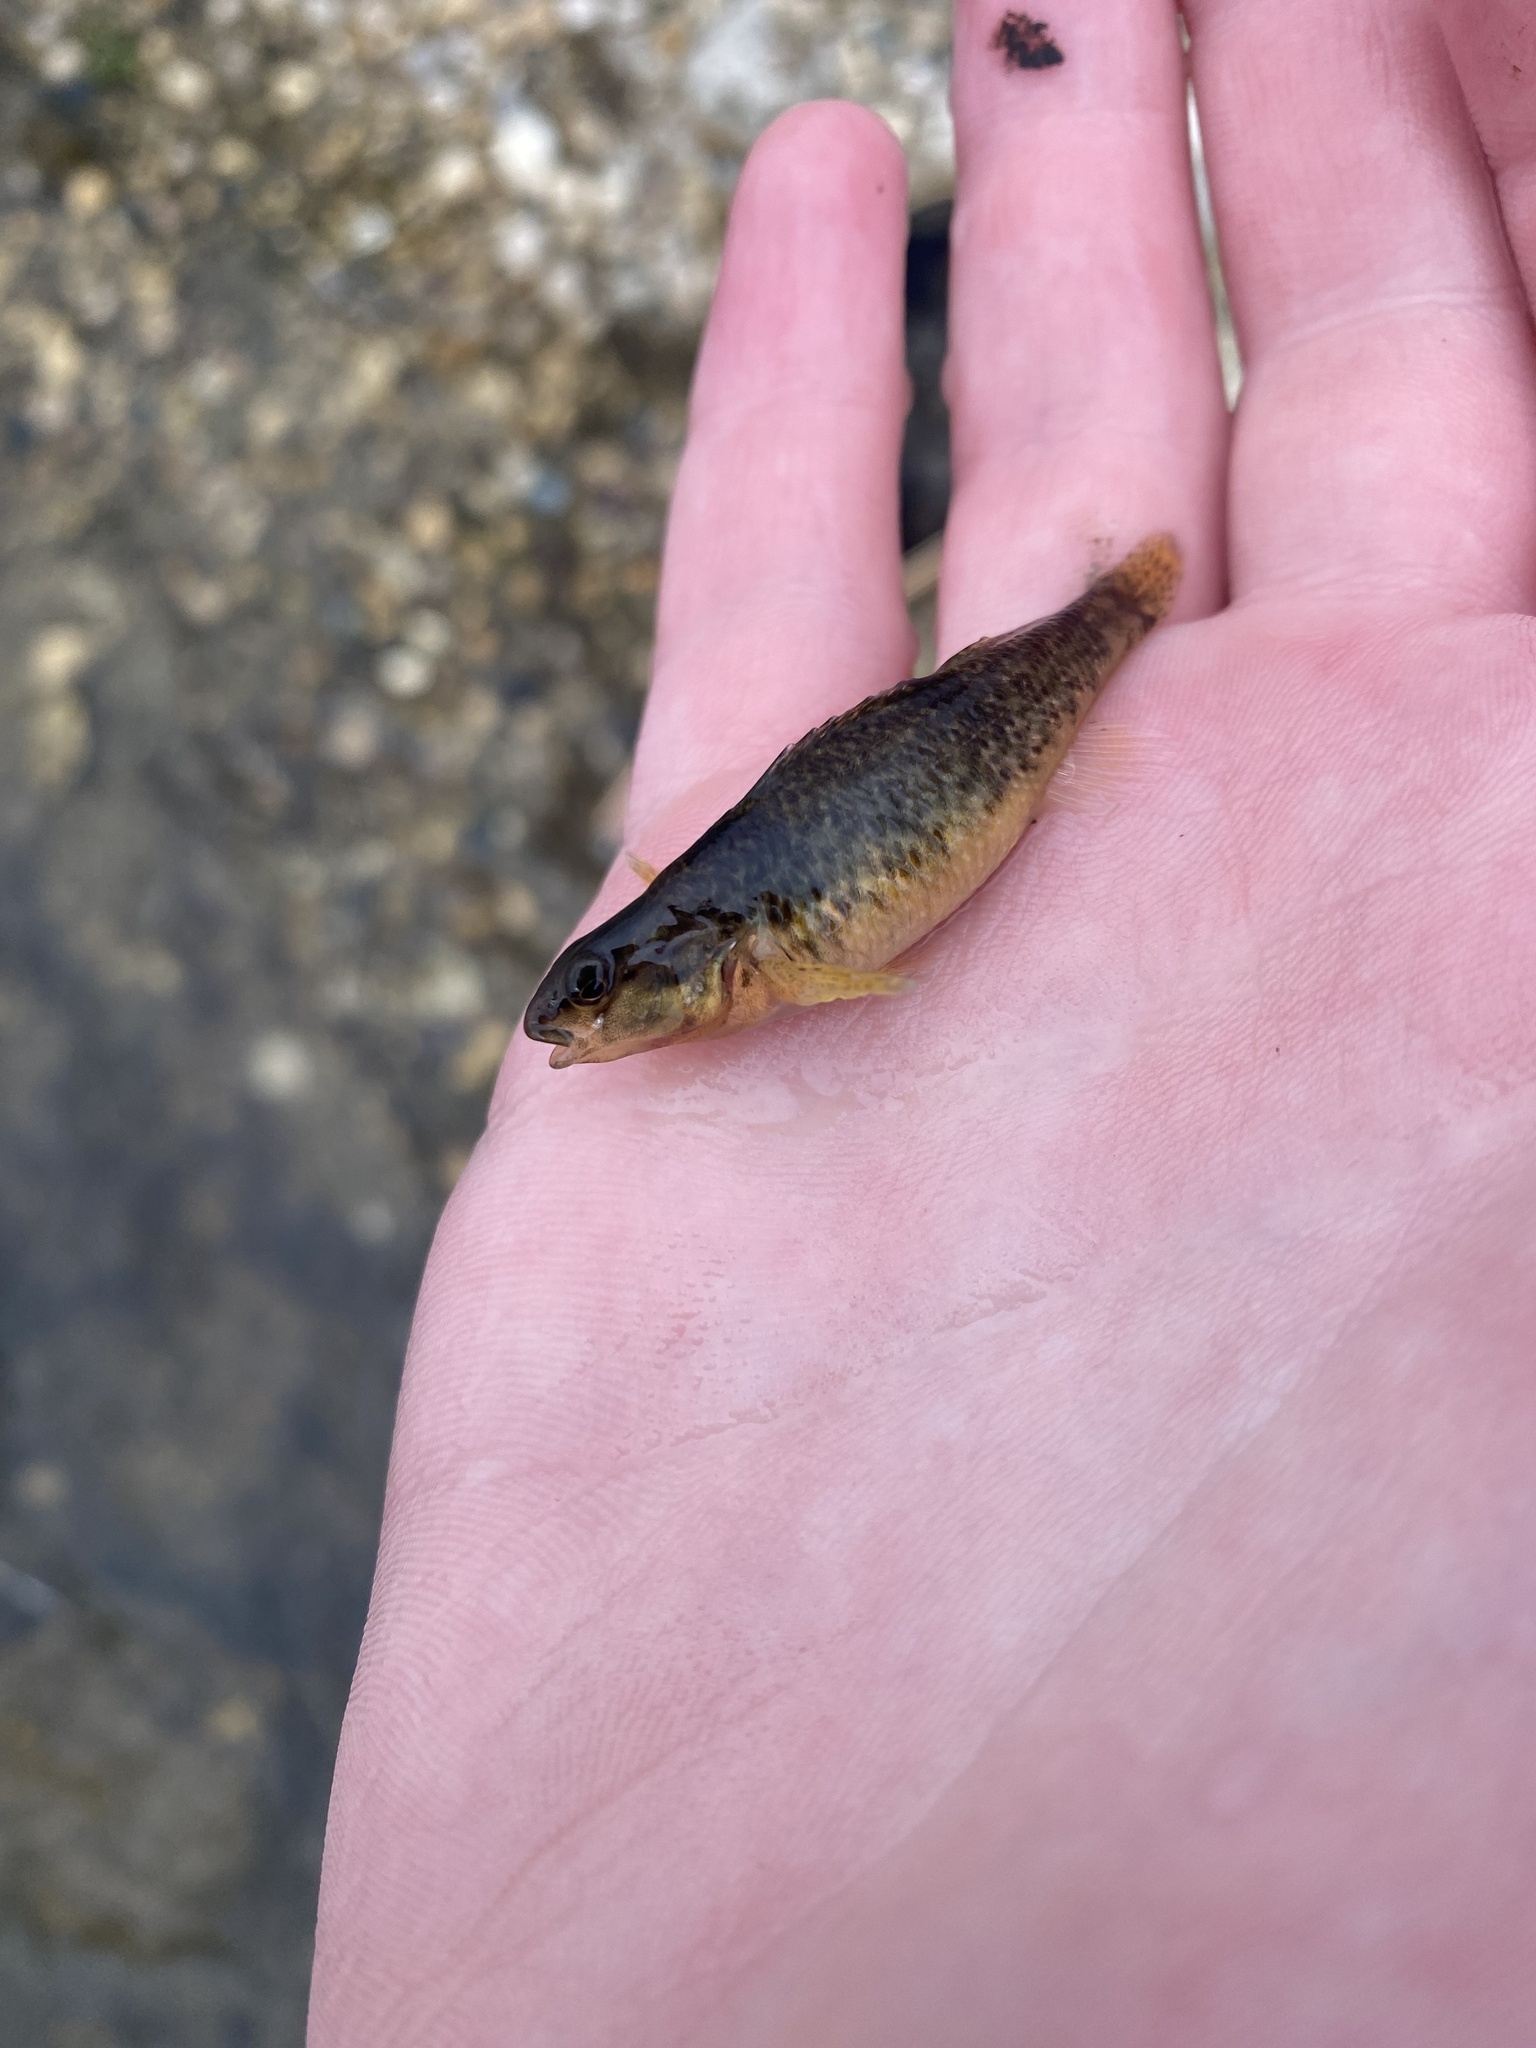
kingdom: Animalia
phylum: Chordata
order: Perciformes
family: Percidae
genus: Etheostoma
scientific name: Etheostoma caeruleum
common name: Rainbow darter
